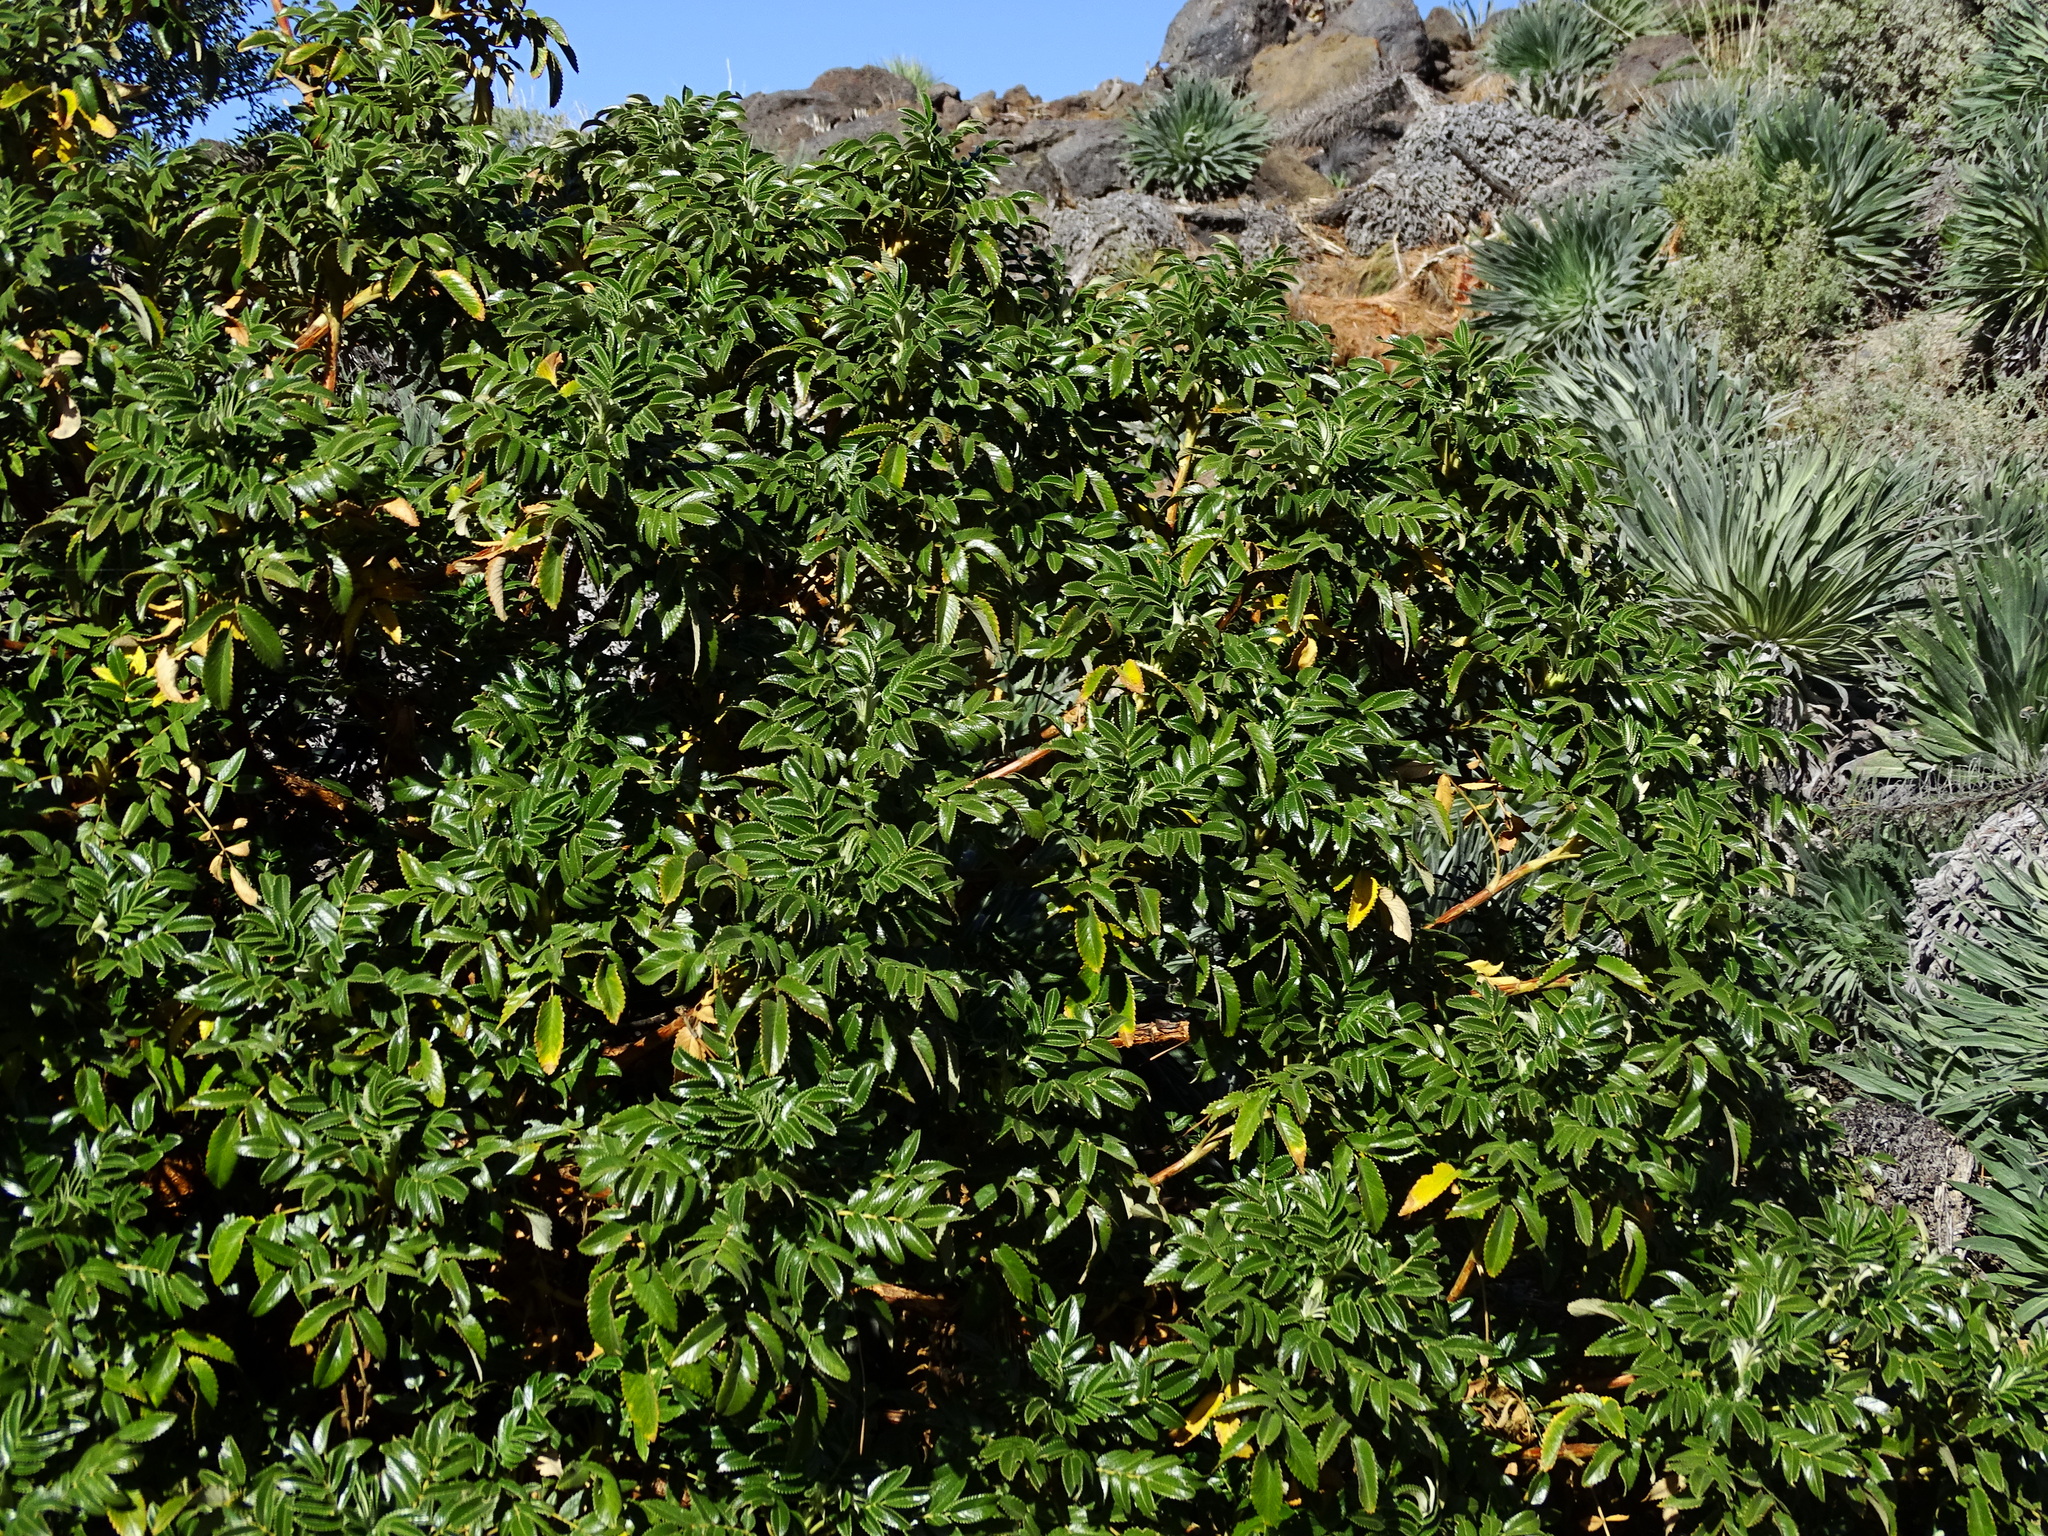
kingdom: Plantae
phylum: Tracheophyta
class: Magnoliopsida
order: Rosales
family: Rosaceae
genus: Bencomia
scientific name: Bencomia exstipulata
